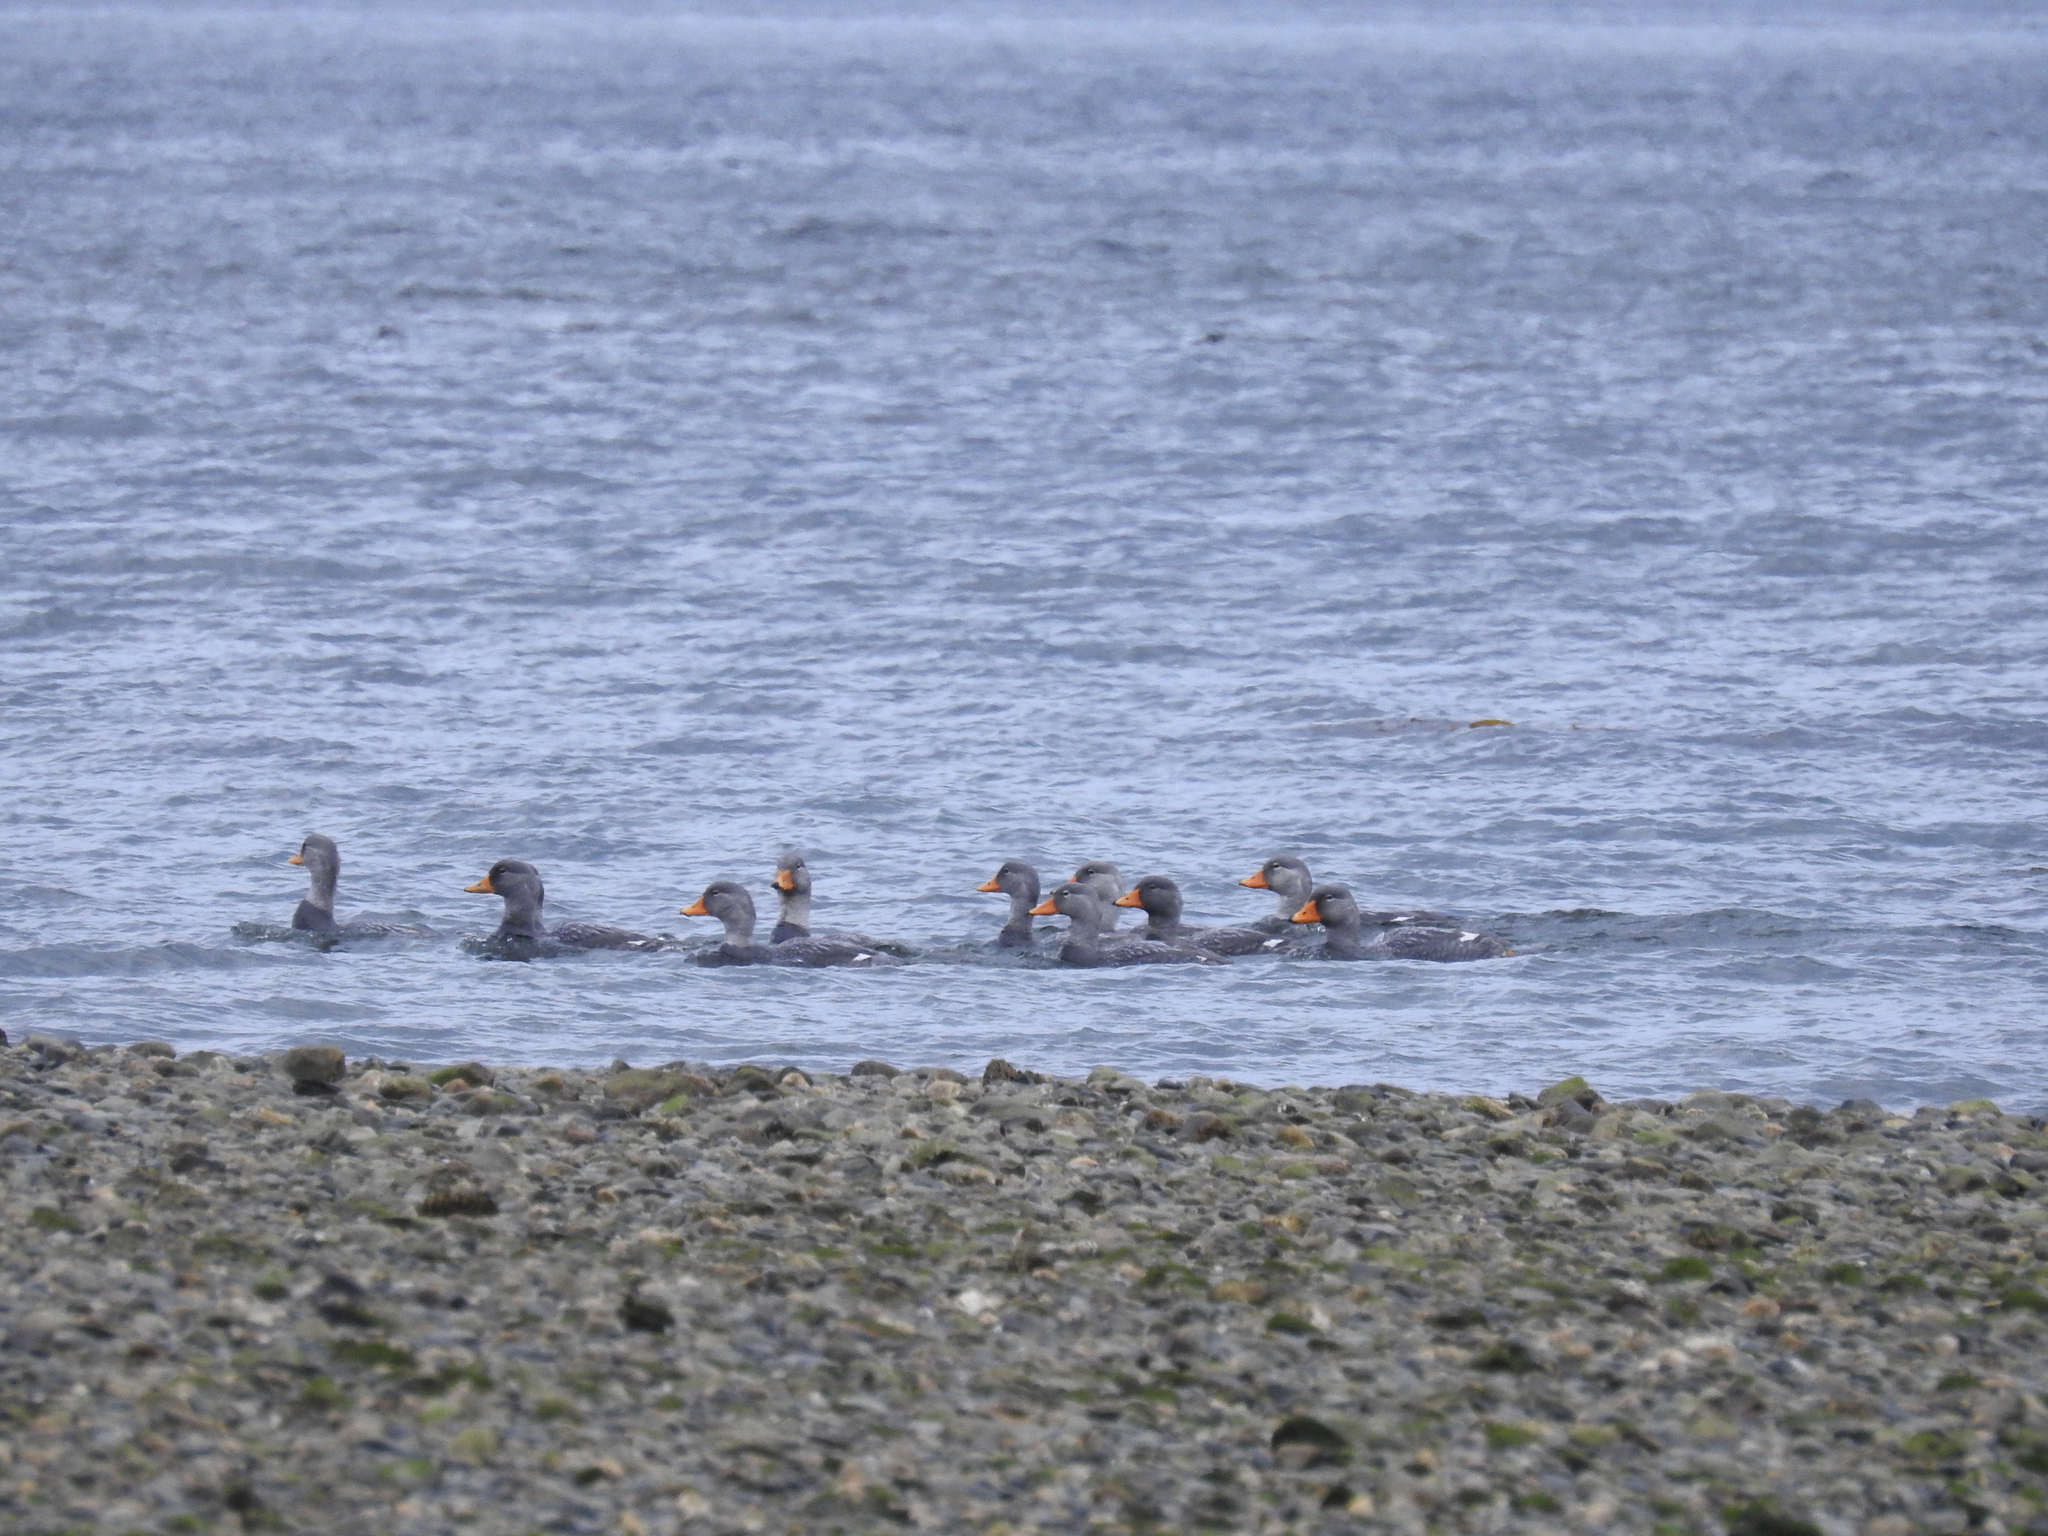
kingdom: Animalia
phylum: Chordata
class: Aves
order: Anseriformes
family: Anatidae
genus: Tachyeres
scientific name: Tachyeres pteneres
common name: Fuegian steamer duck
